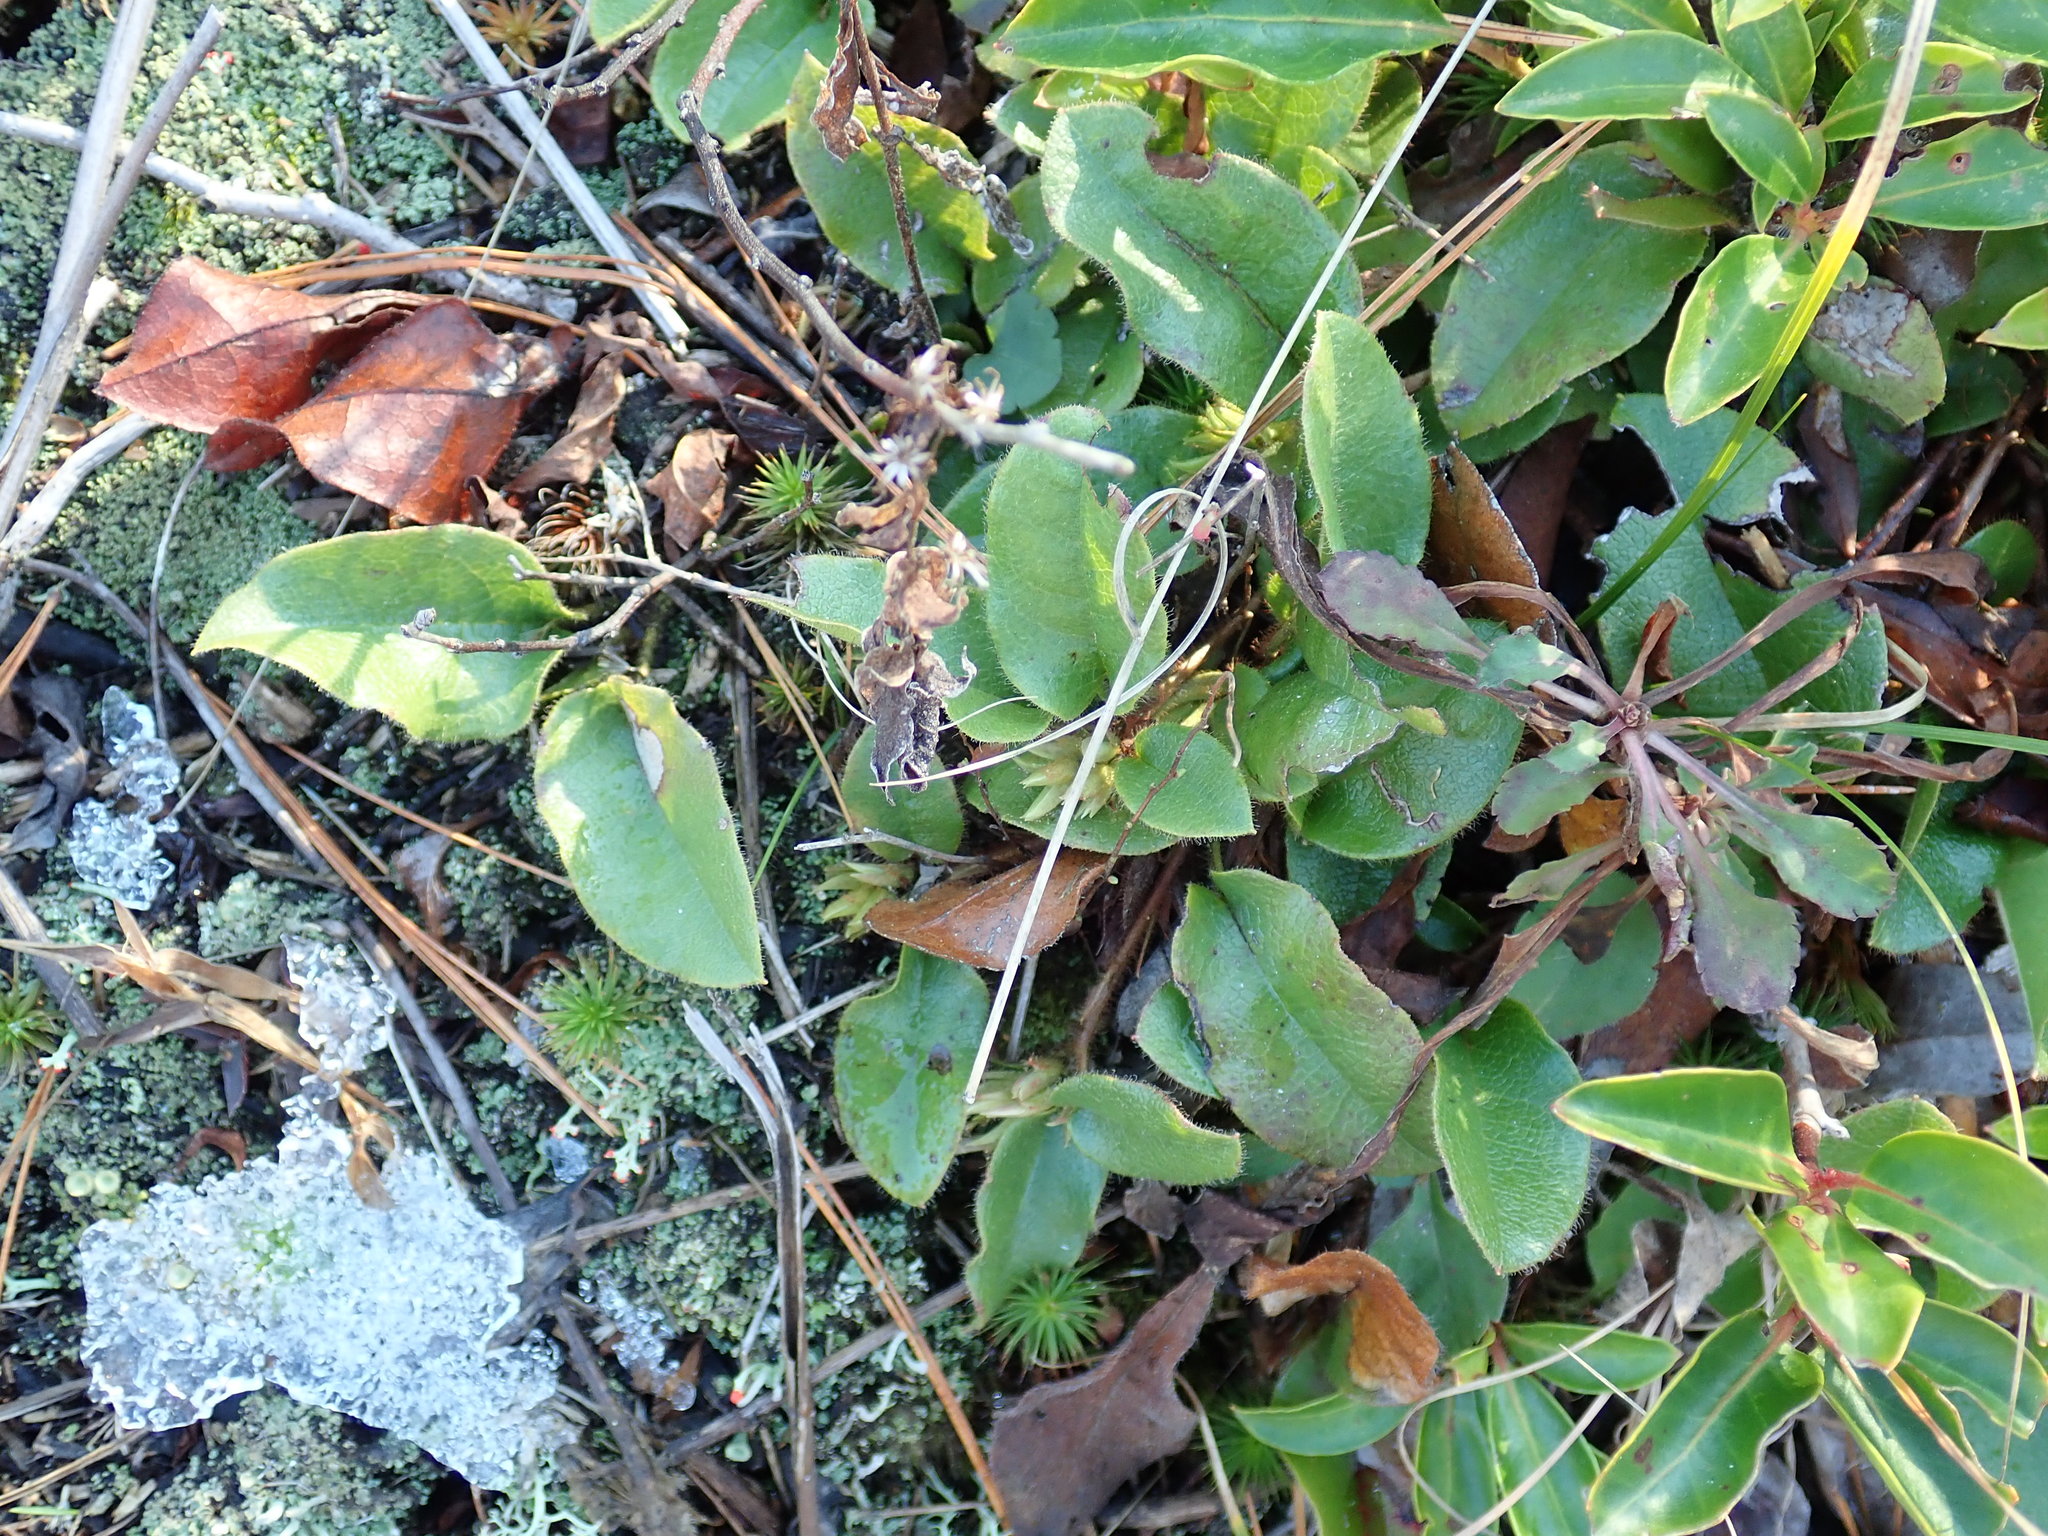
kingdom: Plantae
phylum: Tracheophyta
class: Magnoliopsida
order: Ericales
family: Ericaceae
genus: Epigaea
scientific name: Epigaea repens
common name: Gravelroot
